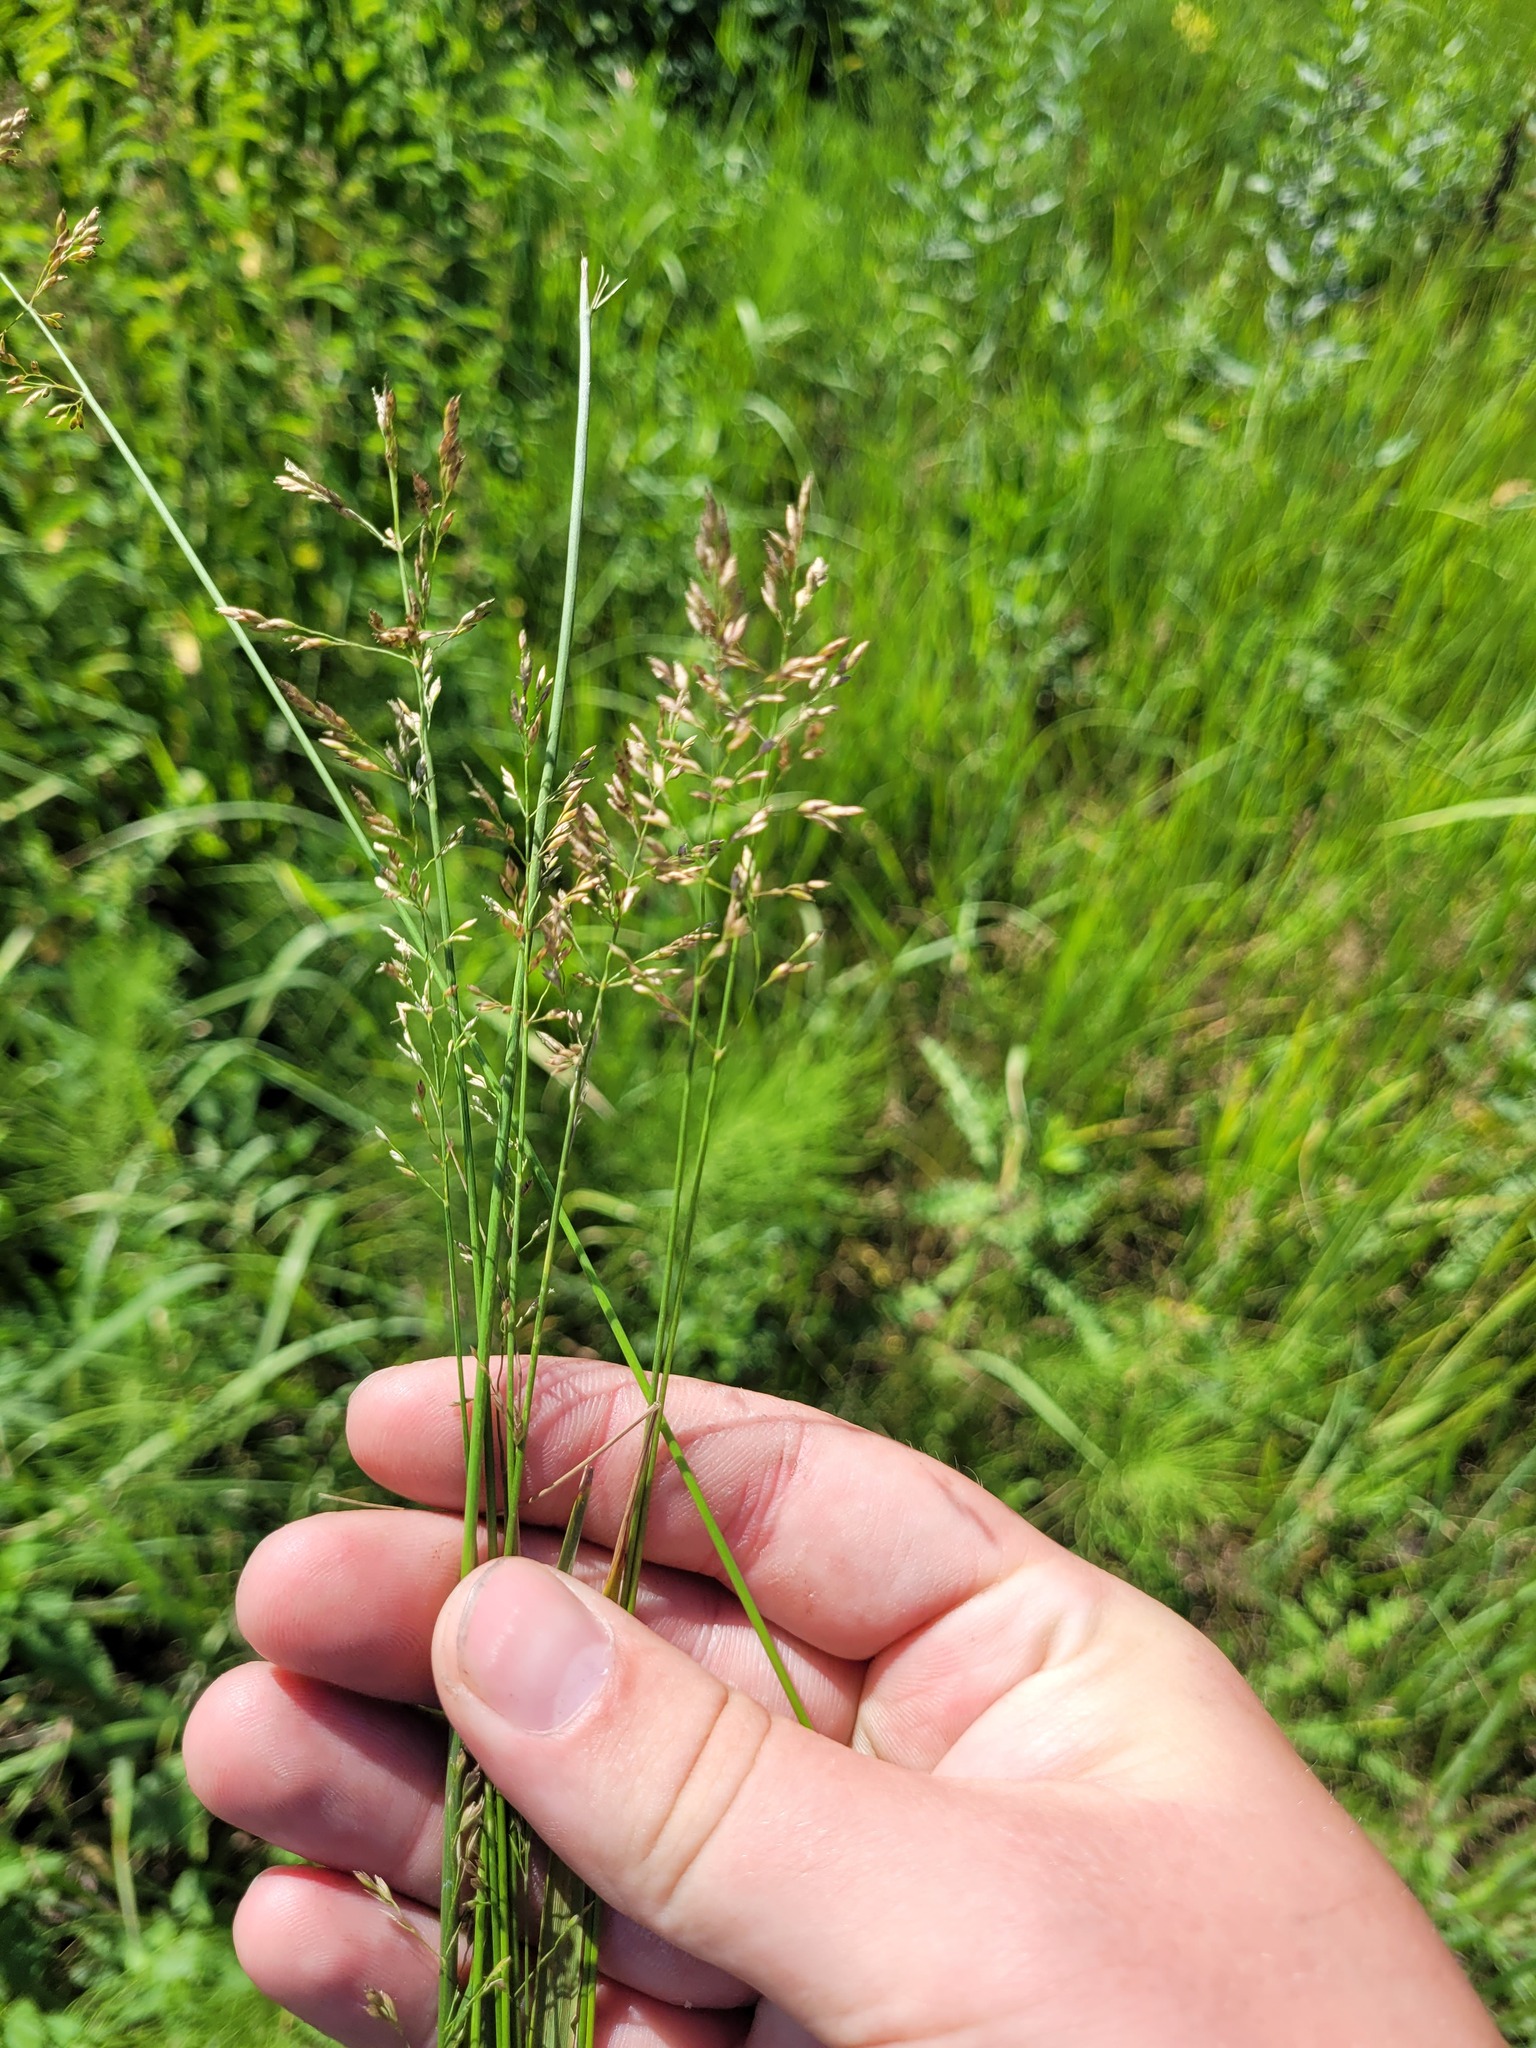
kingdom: Plantae
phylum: Tracheophyta
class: Liliopsida
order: Poales
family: Poaceae
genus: Poa
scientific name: Poa compressa
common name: Canada bluegrass
